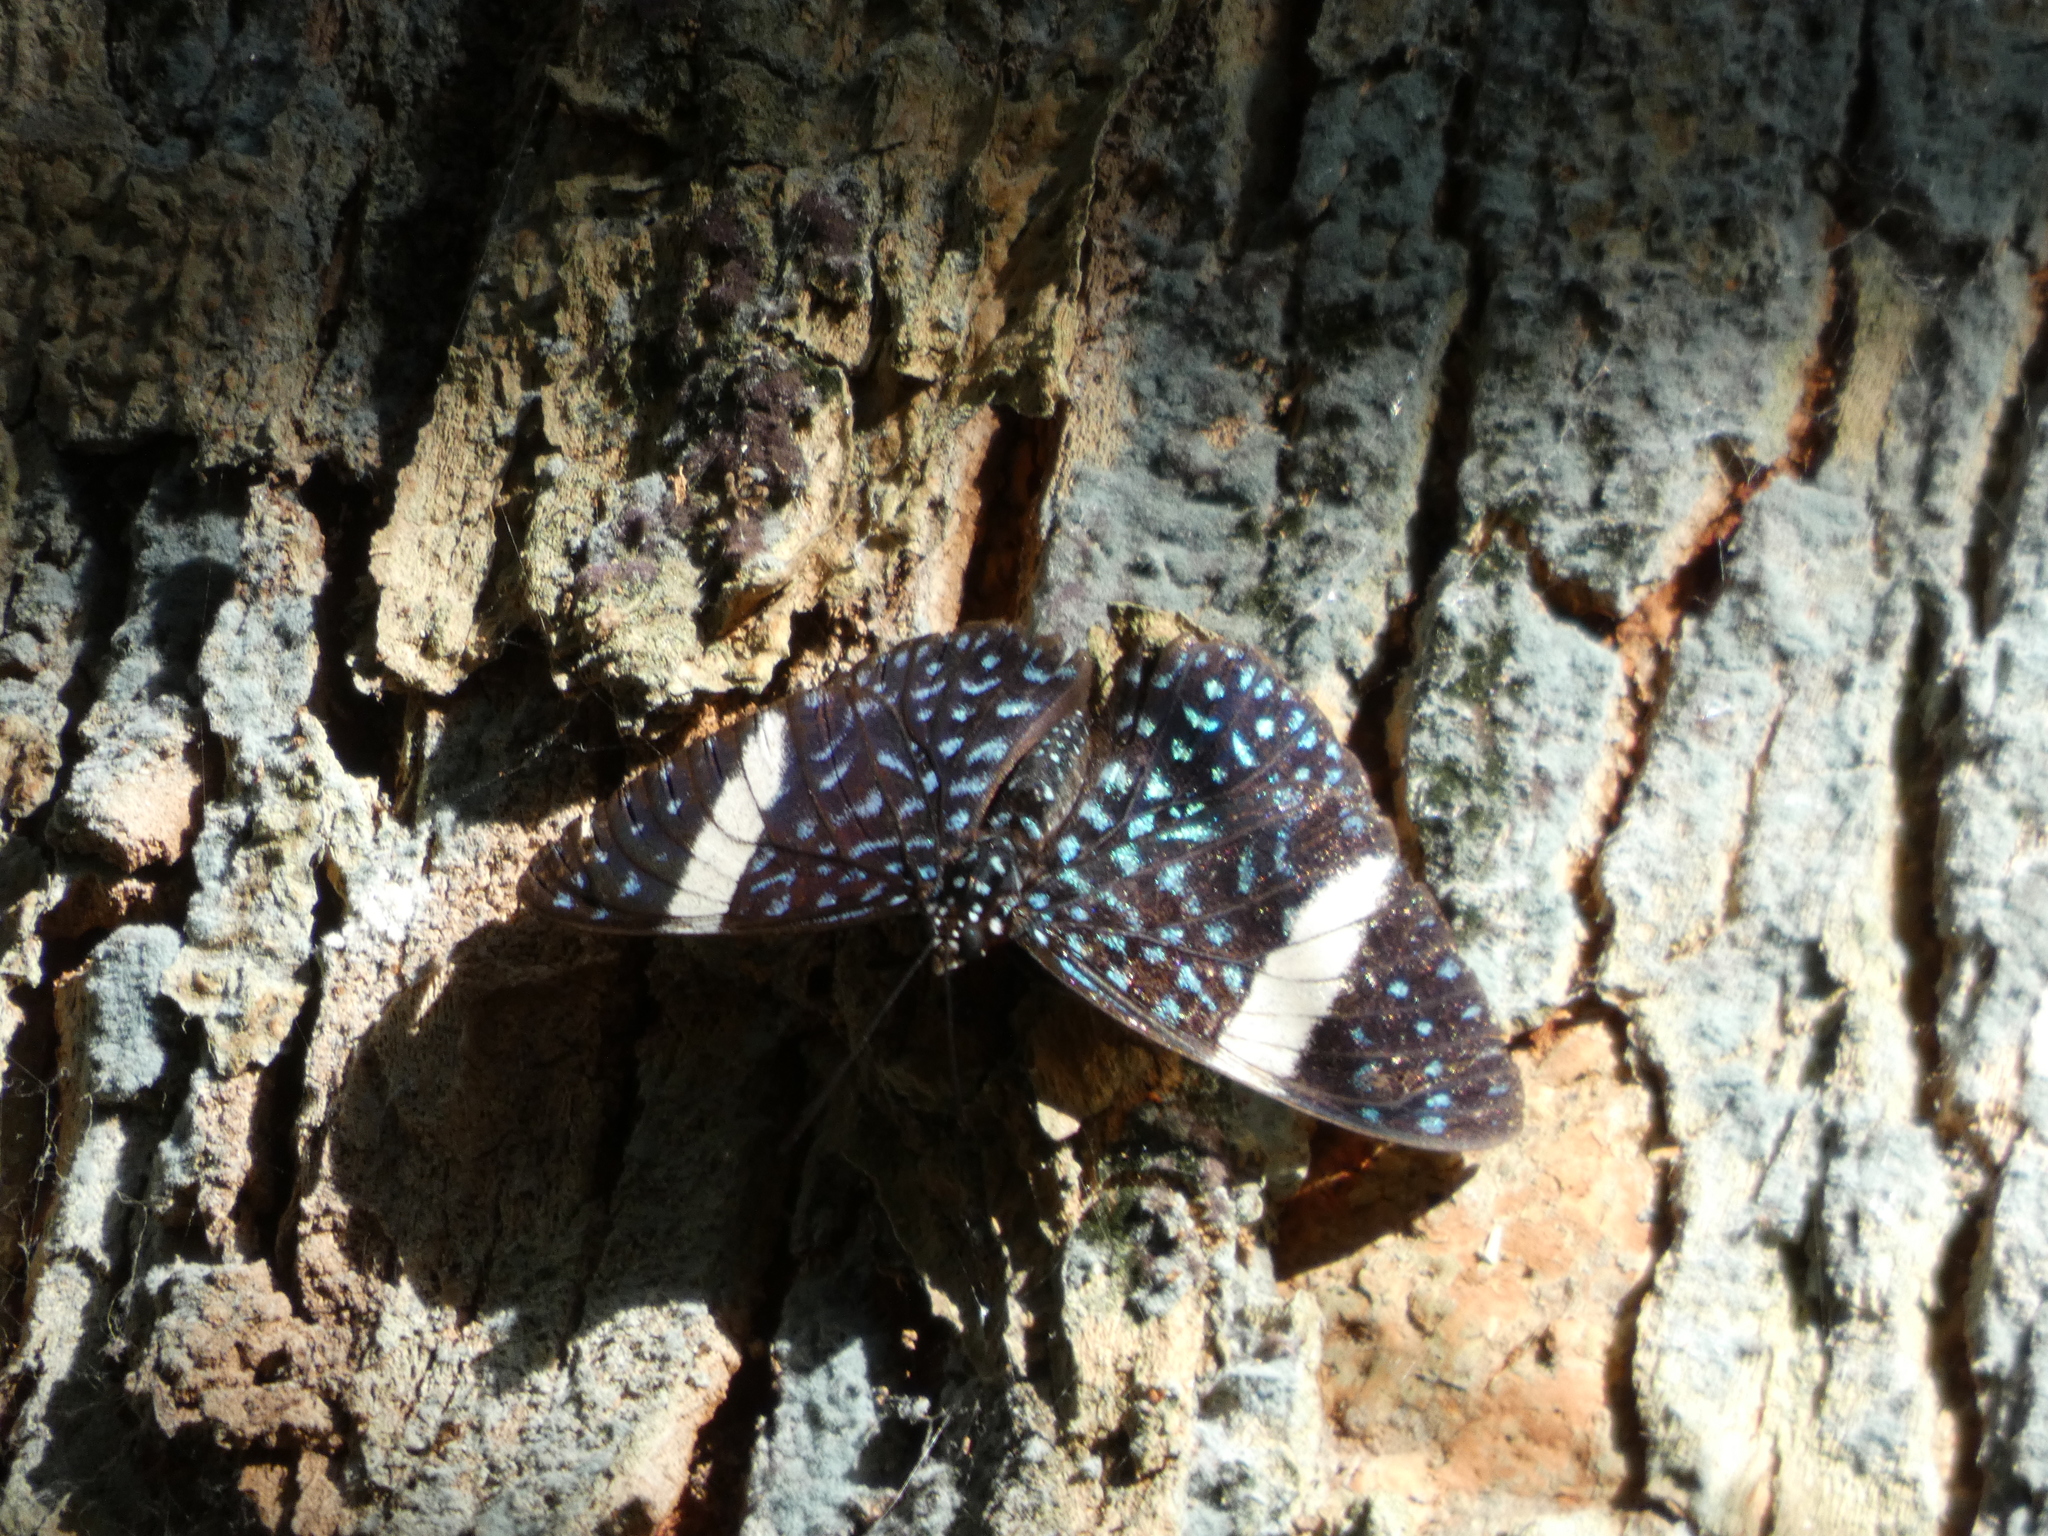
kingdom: Animalia
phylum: Arthropoda
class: Insecta
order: Lepidoptera
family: Nymphalidae
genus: Hamadryas
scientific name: Hamadryas laodamia
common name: Starry night cracker
